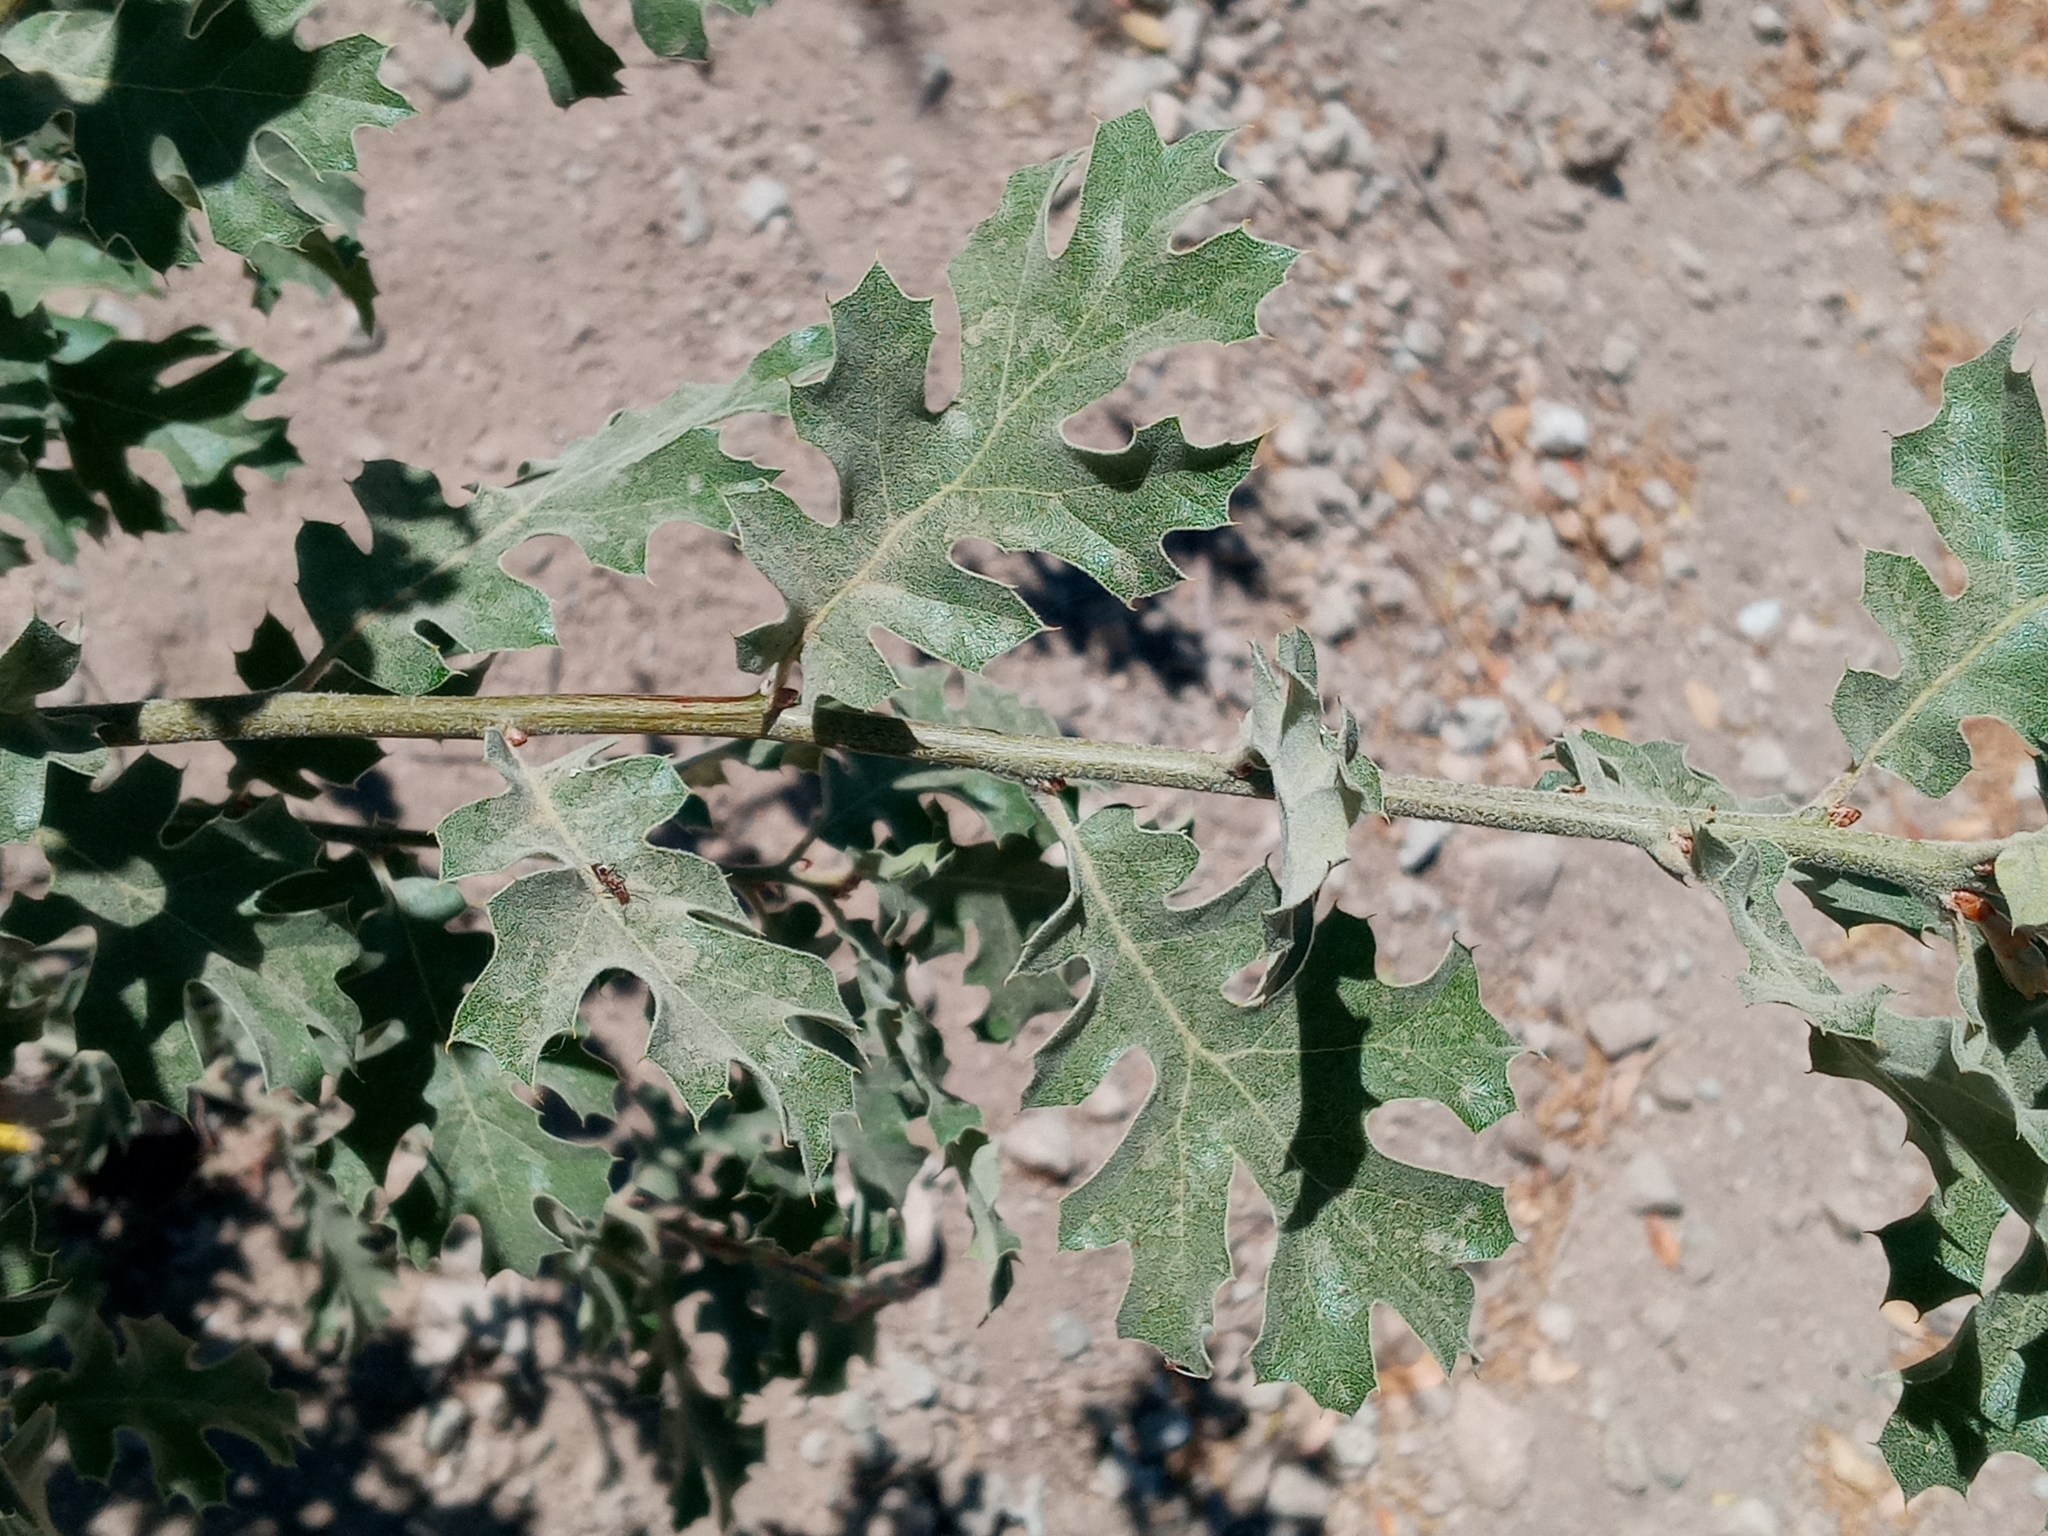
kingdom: Plantae
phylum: Tracheophyta
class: Magnoliopsida
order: Fagales
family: Fagaceae
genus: Quercus
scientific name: Quercus kelloggii
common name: California black oak
